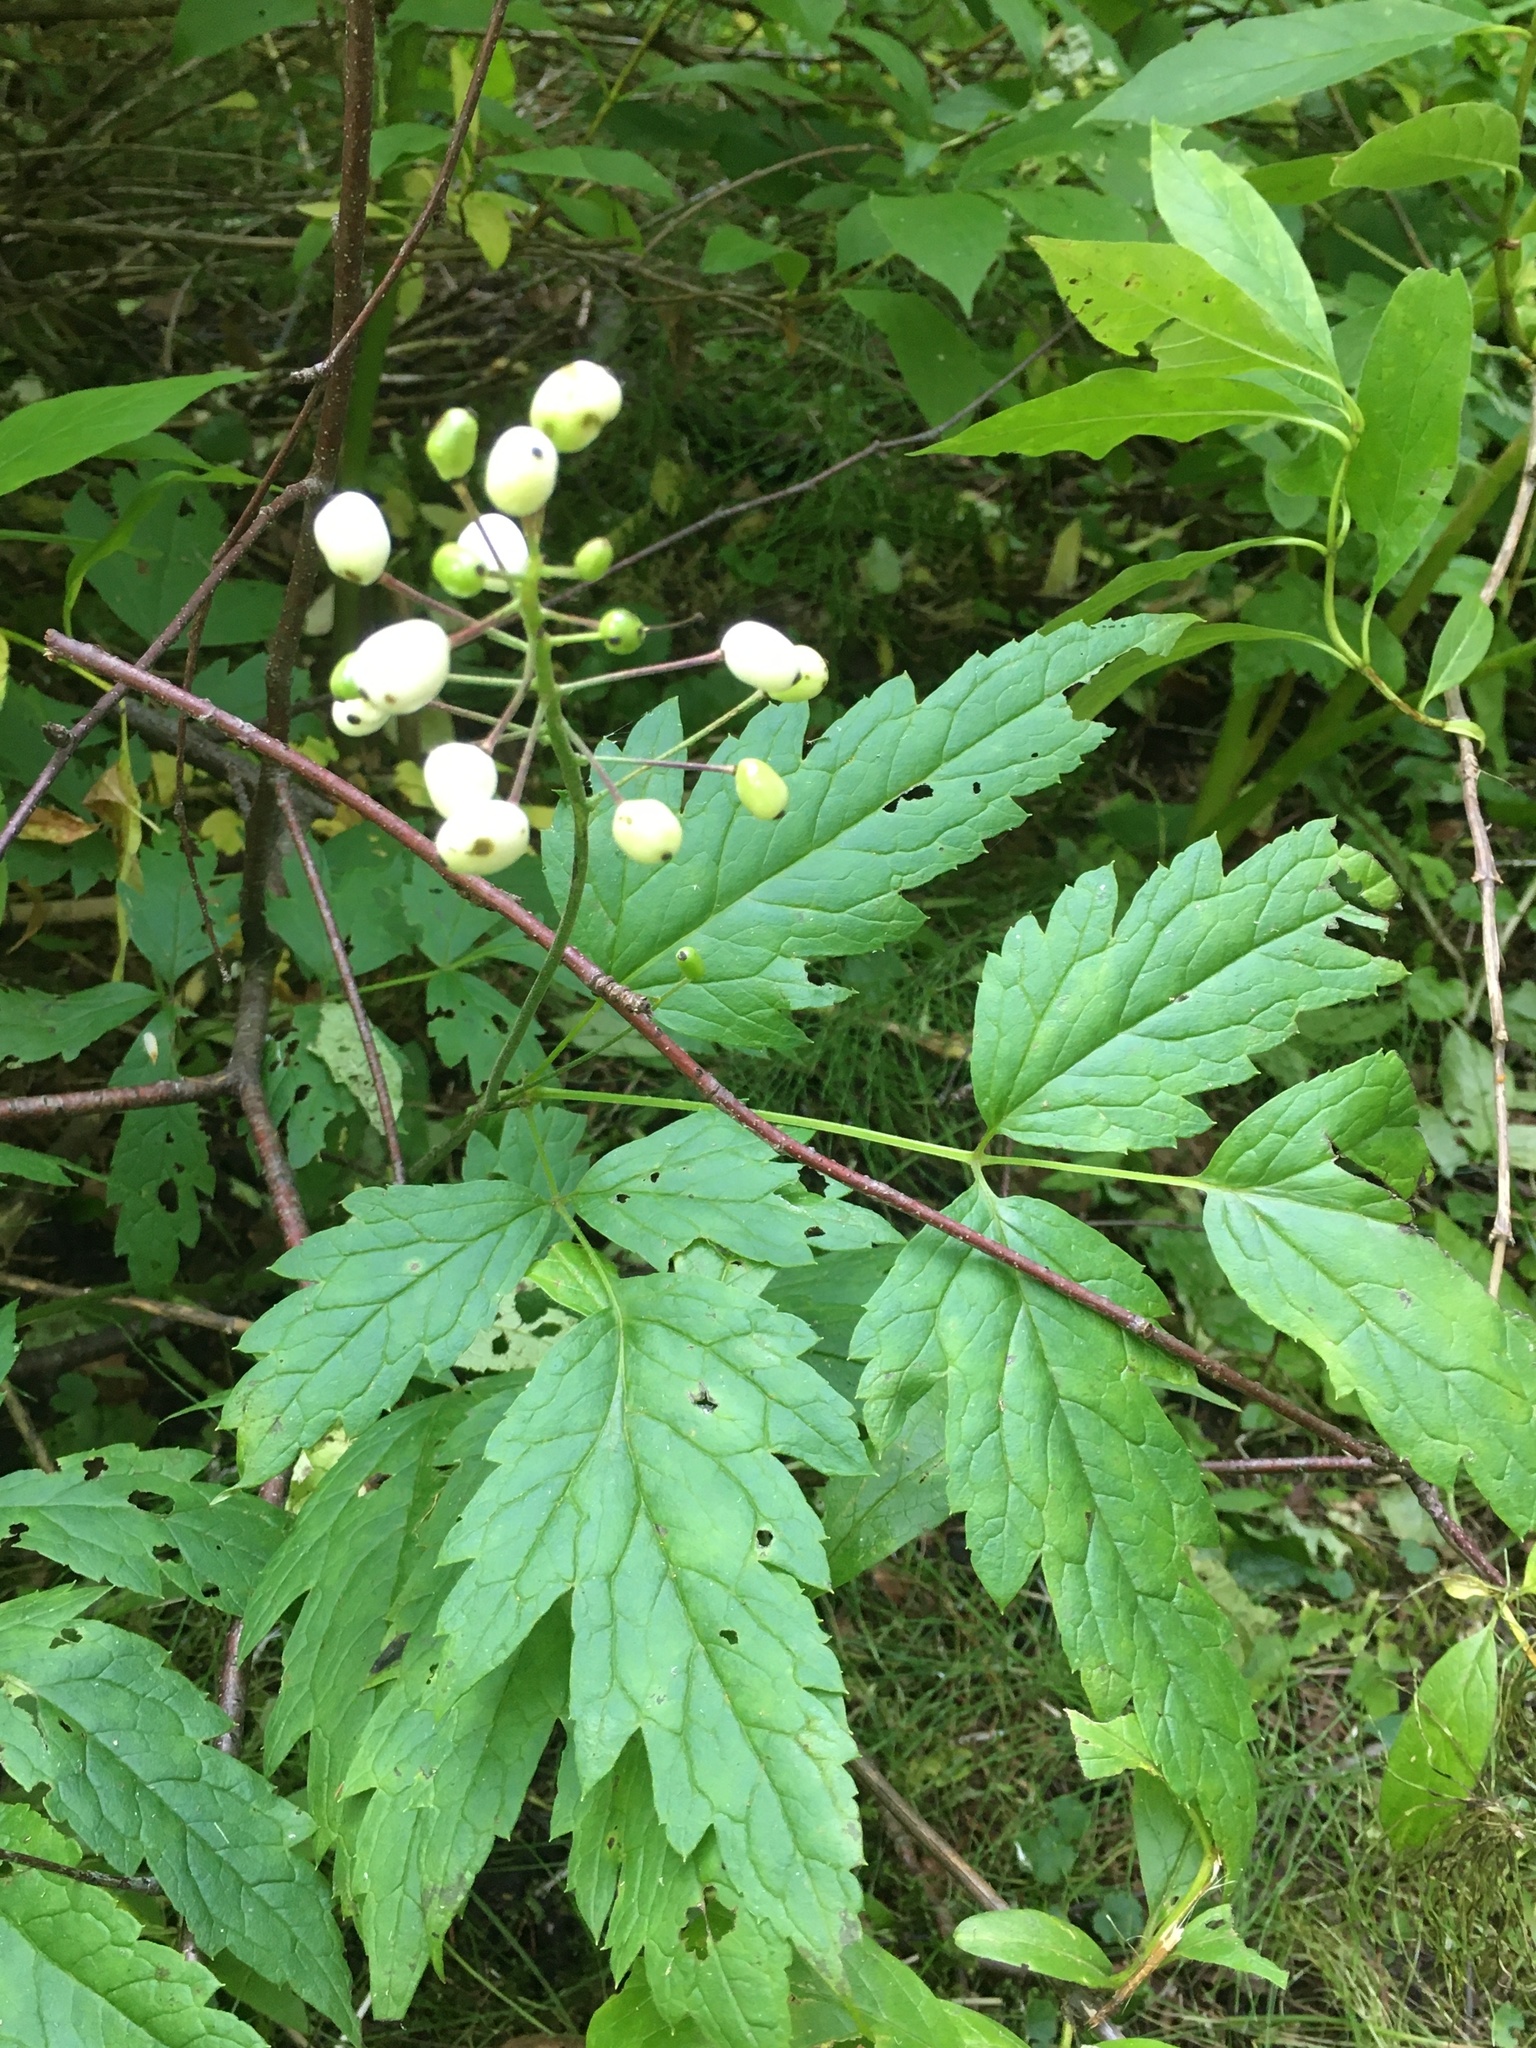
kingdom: Plantae
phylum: Tracheophyta
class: Magnoliopsida
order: Ranunculales
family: Ranunculaceae
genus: Actaea
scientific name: Actaea rubra
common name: Red baneberry
